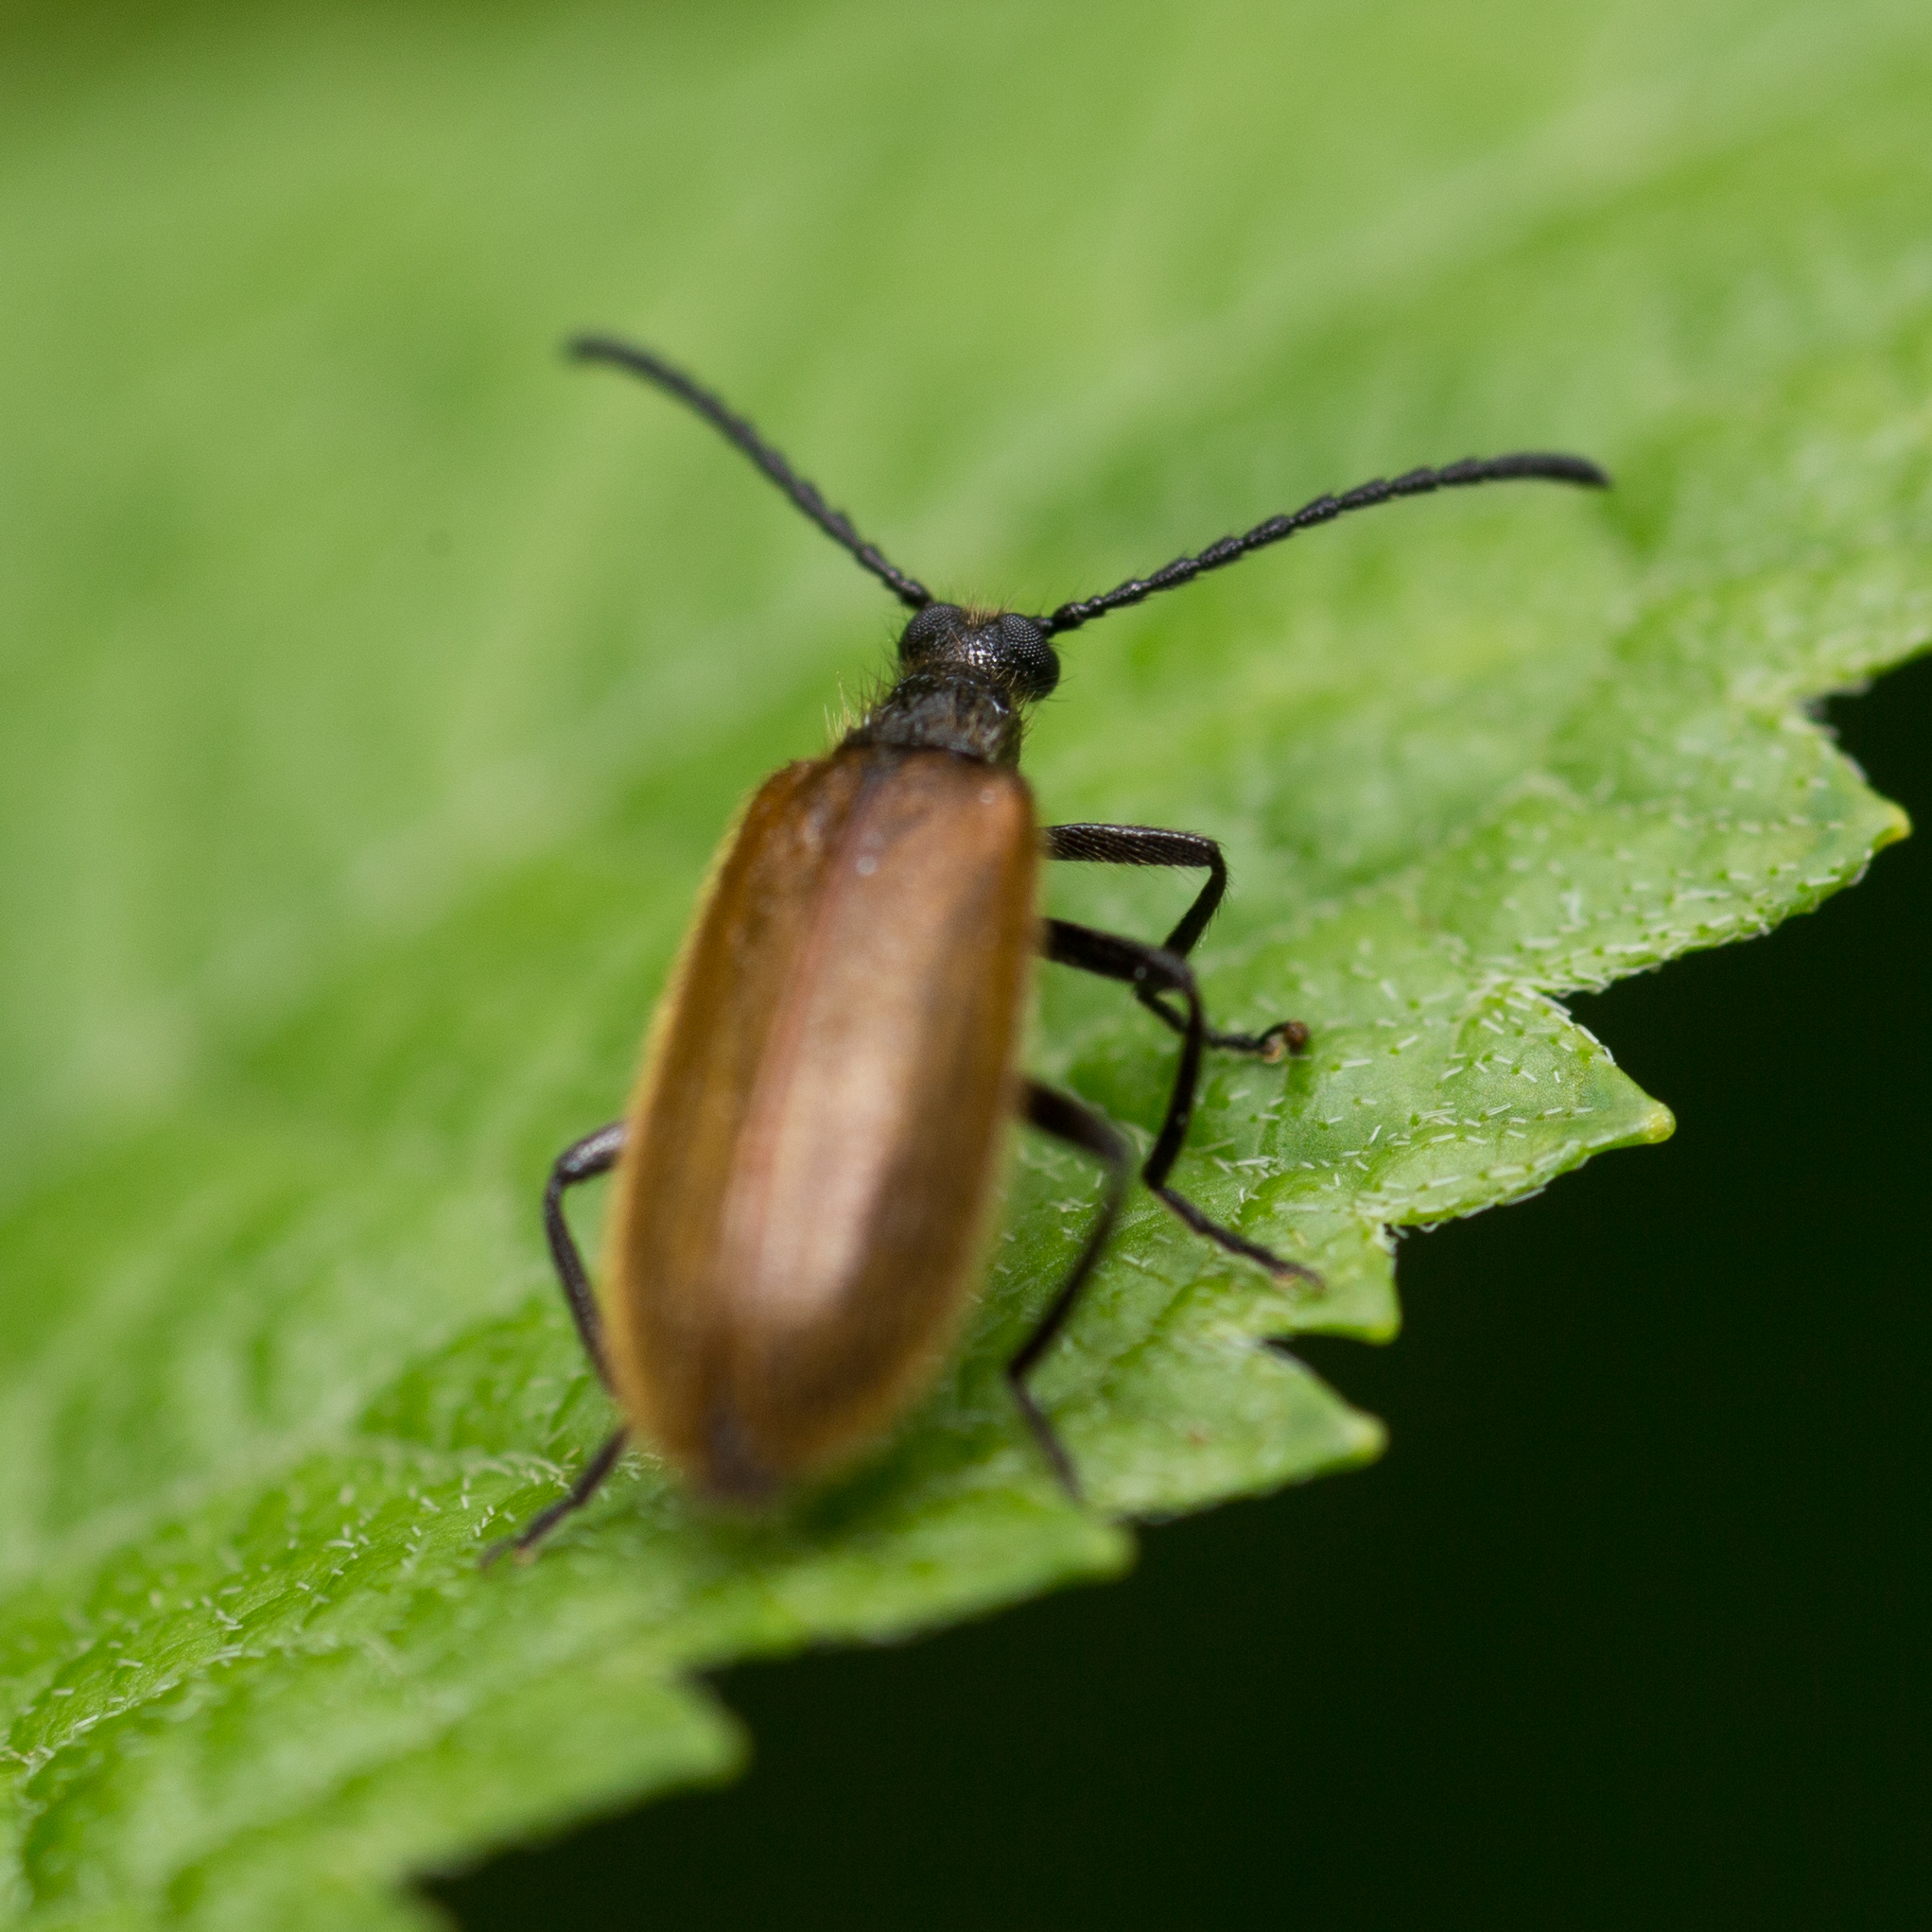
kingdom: Animalia
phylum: Arthropoda
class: Insecta
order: Coleoptera
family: Tenebrionidae
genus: Lagria
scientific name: Lagria hirta
